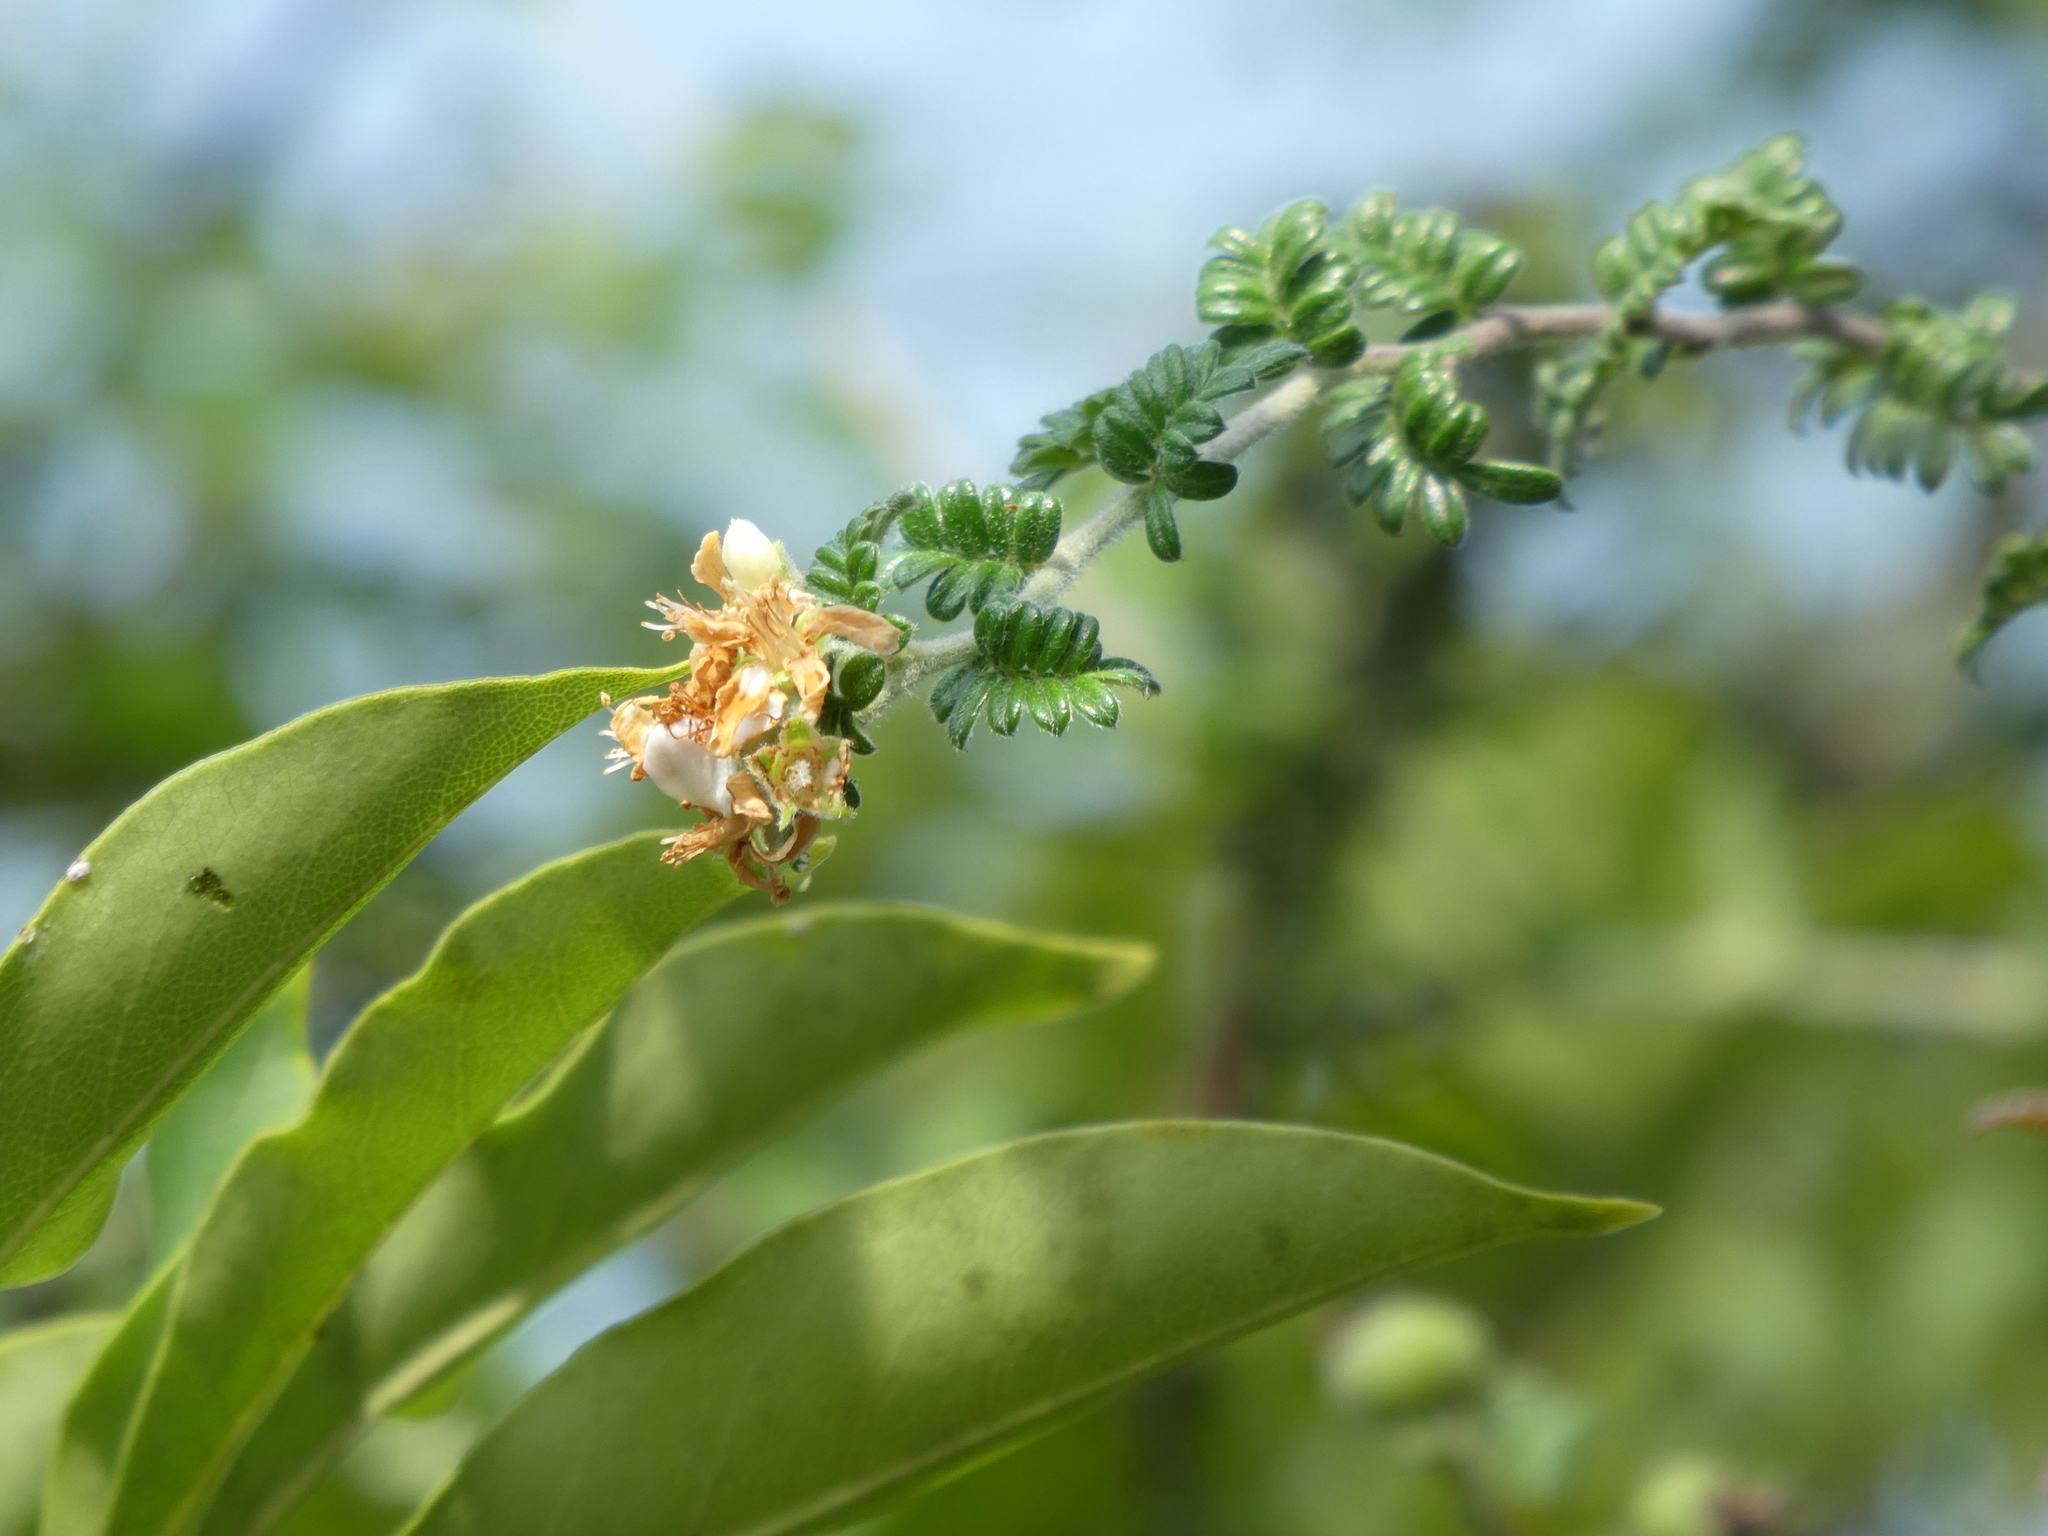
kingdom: Plantae
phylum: Tracheophyta
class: Magnoliopsida
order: Rosales
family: Rosaceae
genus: Osteomeles
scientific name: Osteomeles subrotunda
